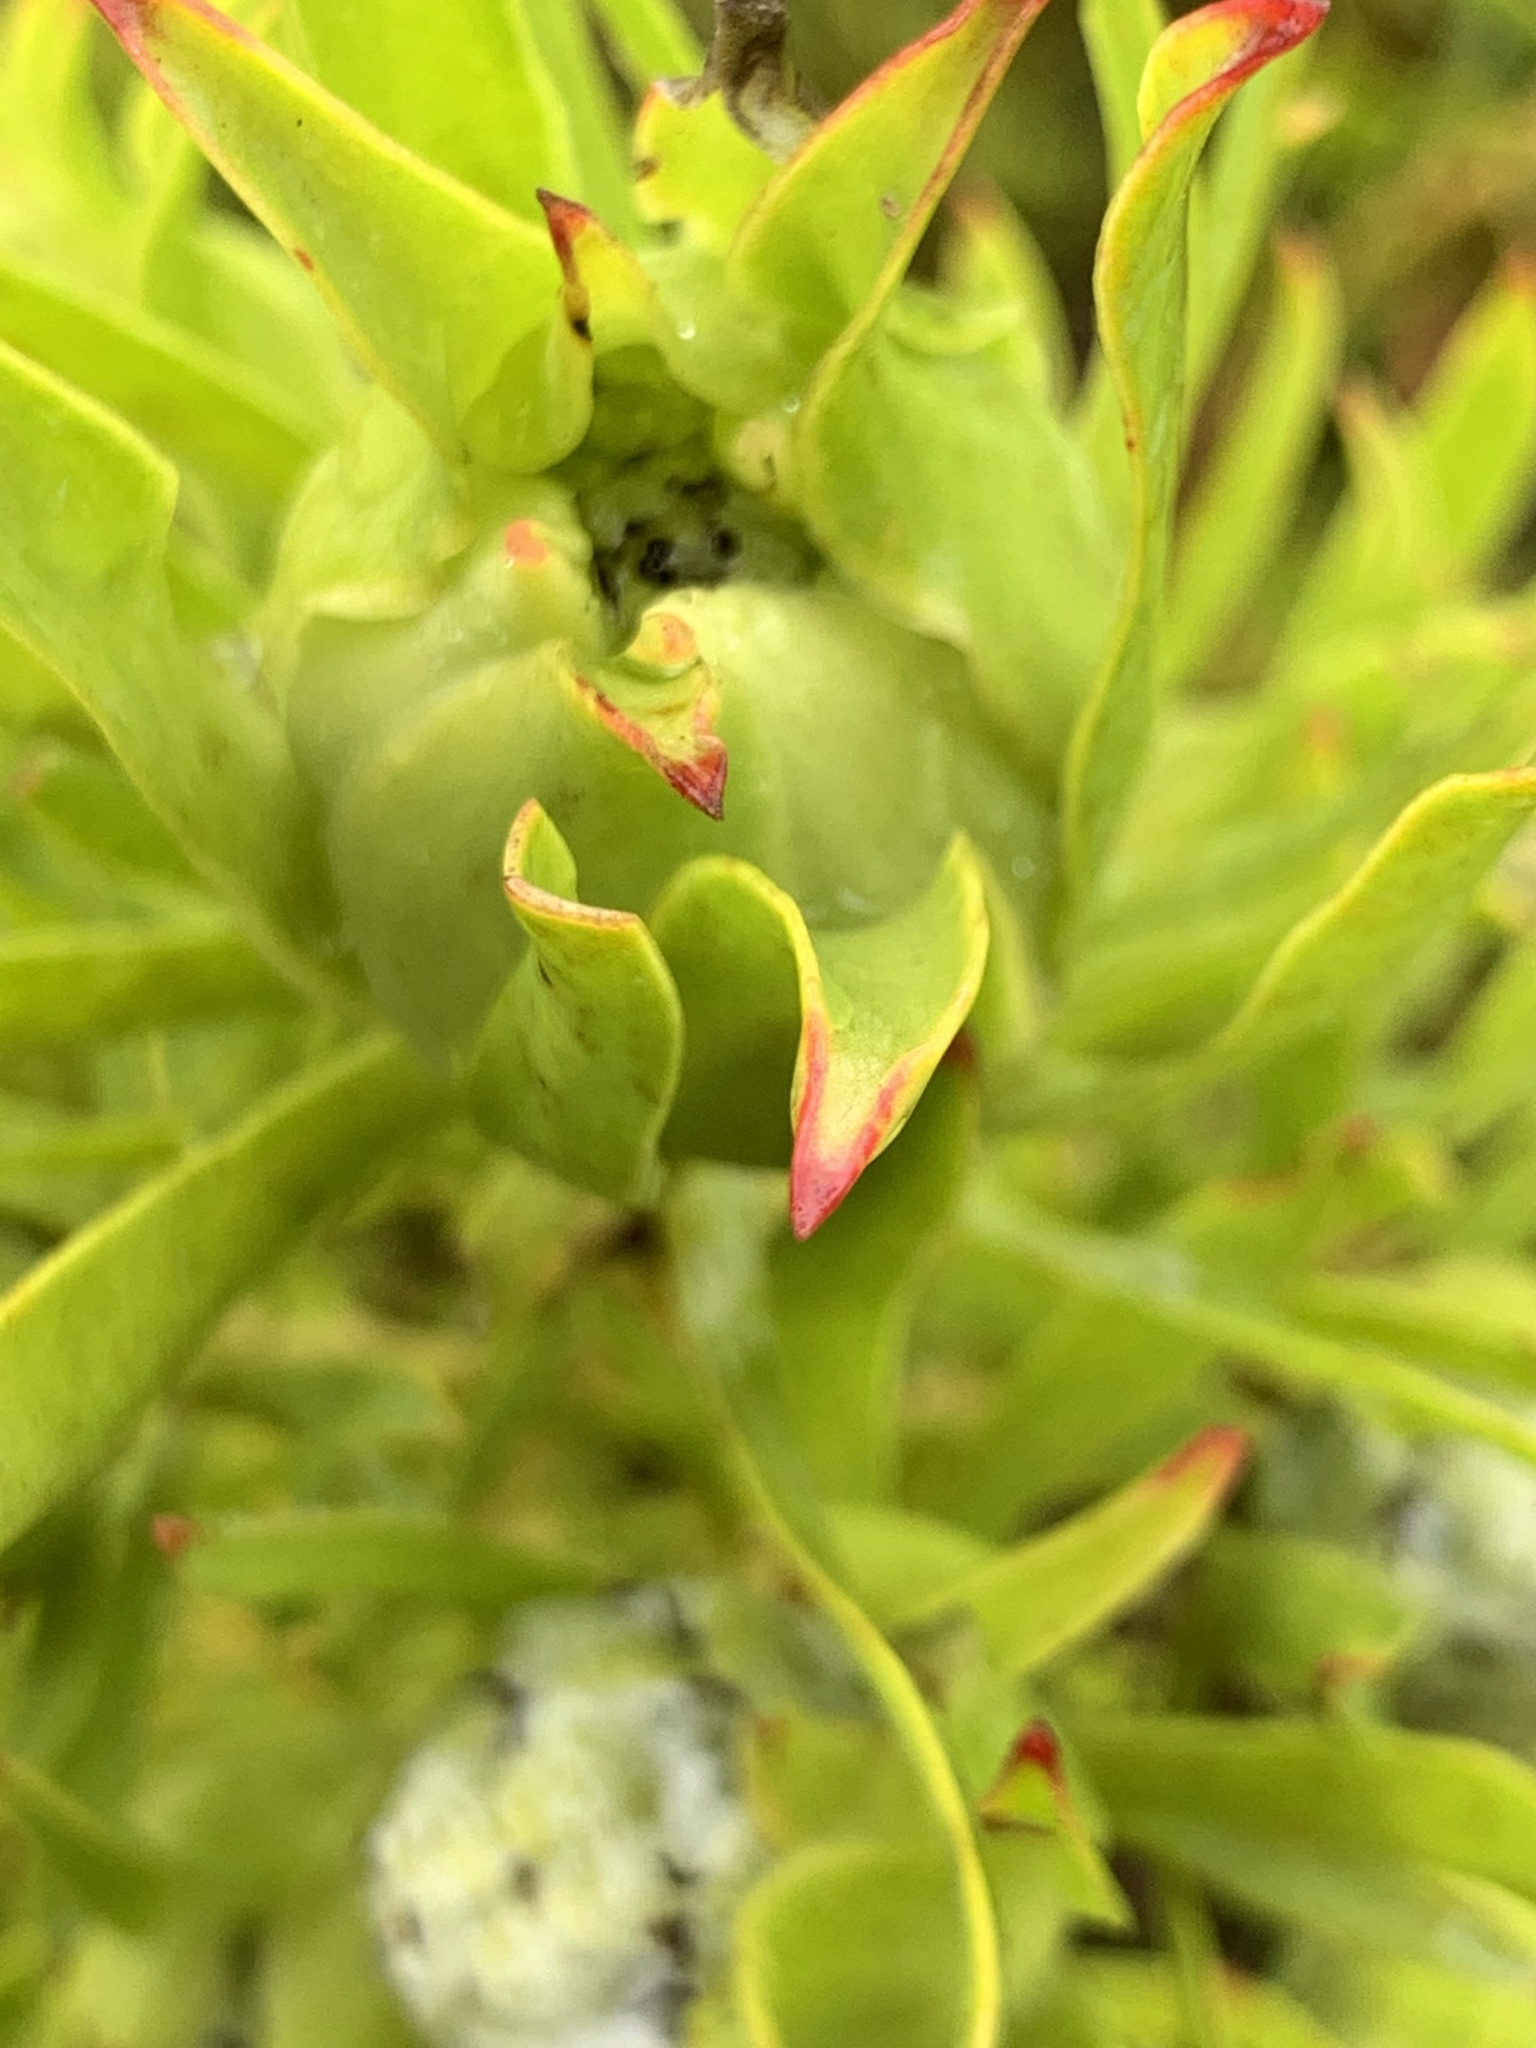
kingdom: Plantae
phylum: Tracheophyta
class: Magnoliopsida
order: Proteales
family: Proteaceae
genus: Leucadendron
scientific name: Leucadendron salignum
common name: Common sunshine conebush
